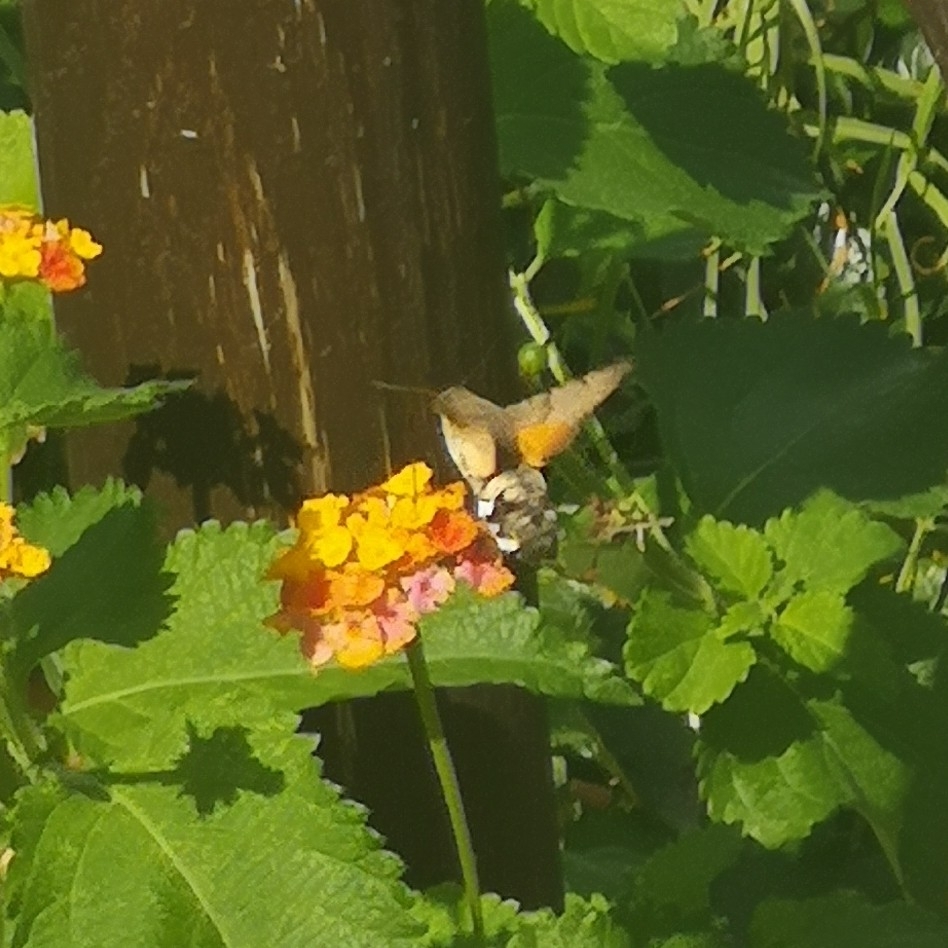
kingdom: Animalia
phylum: Arthropoda
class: Insecta
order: Lepidoptera
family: Sphingidae
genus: Macroglossum
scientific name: Macroglossum stellatarum
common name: Humming-bird hawk-moth
